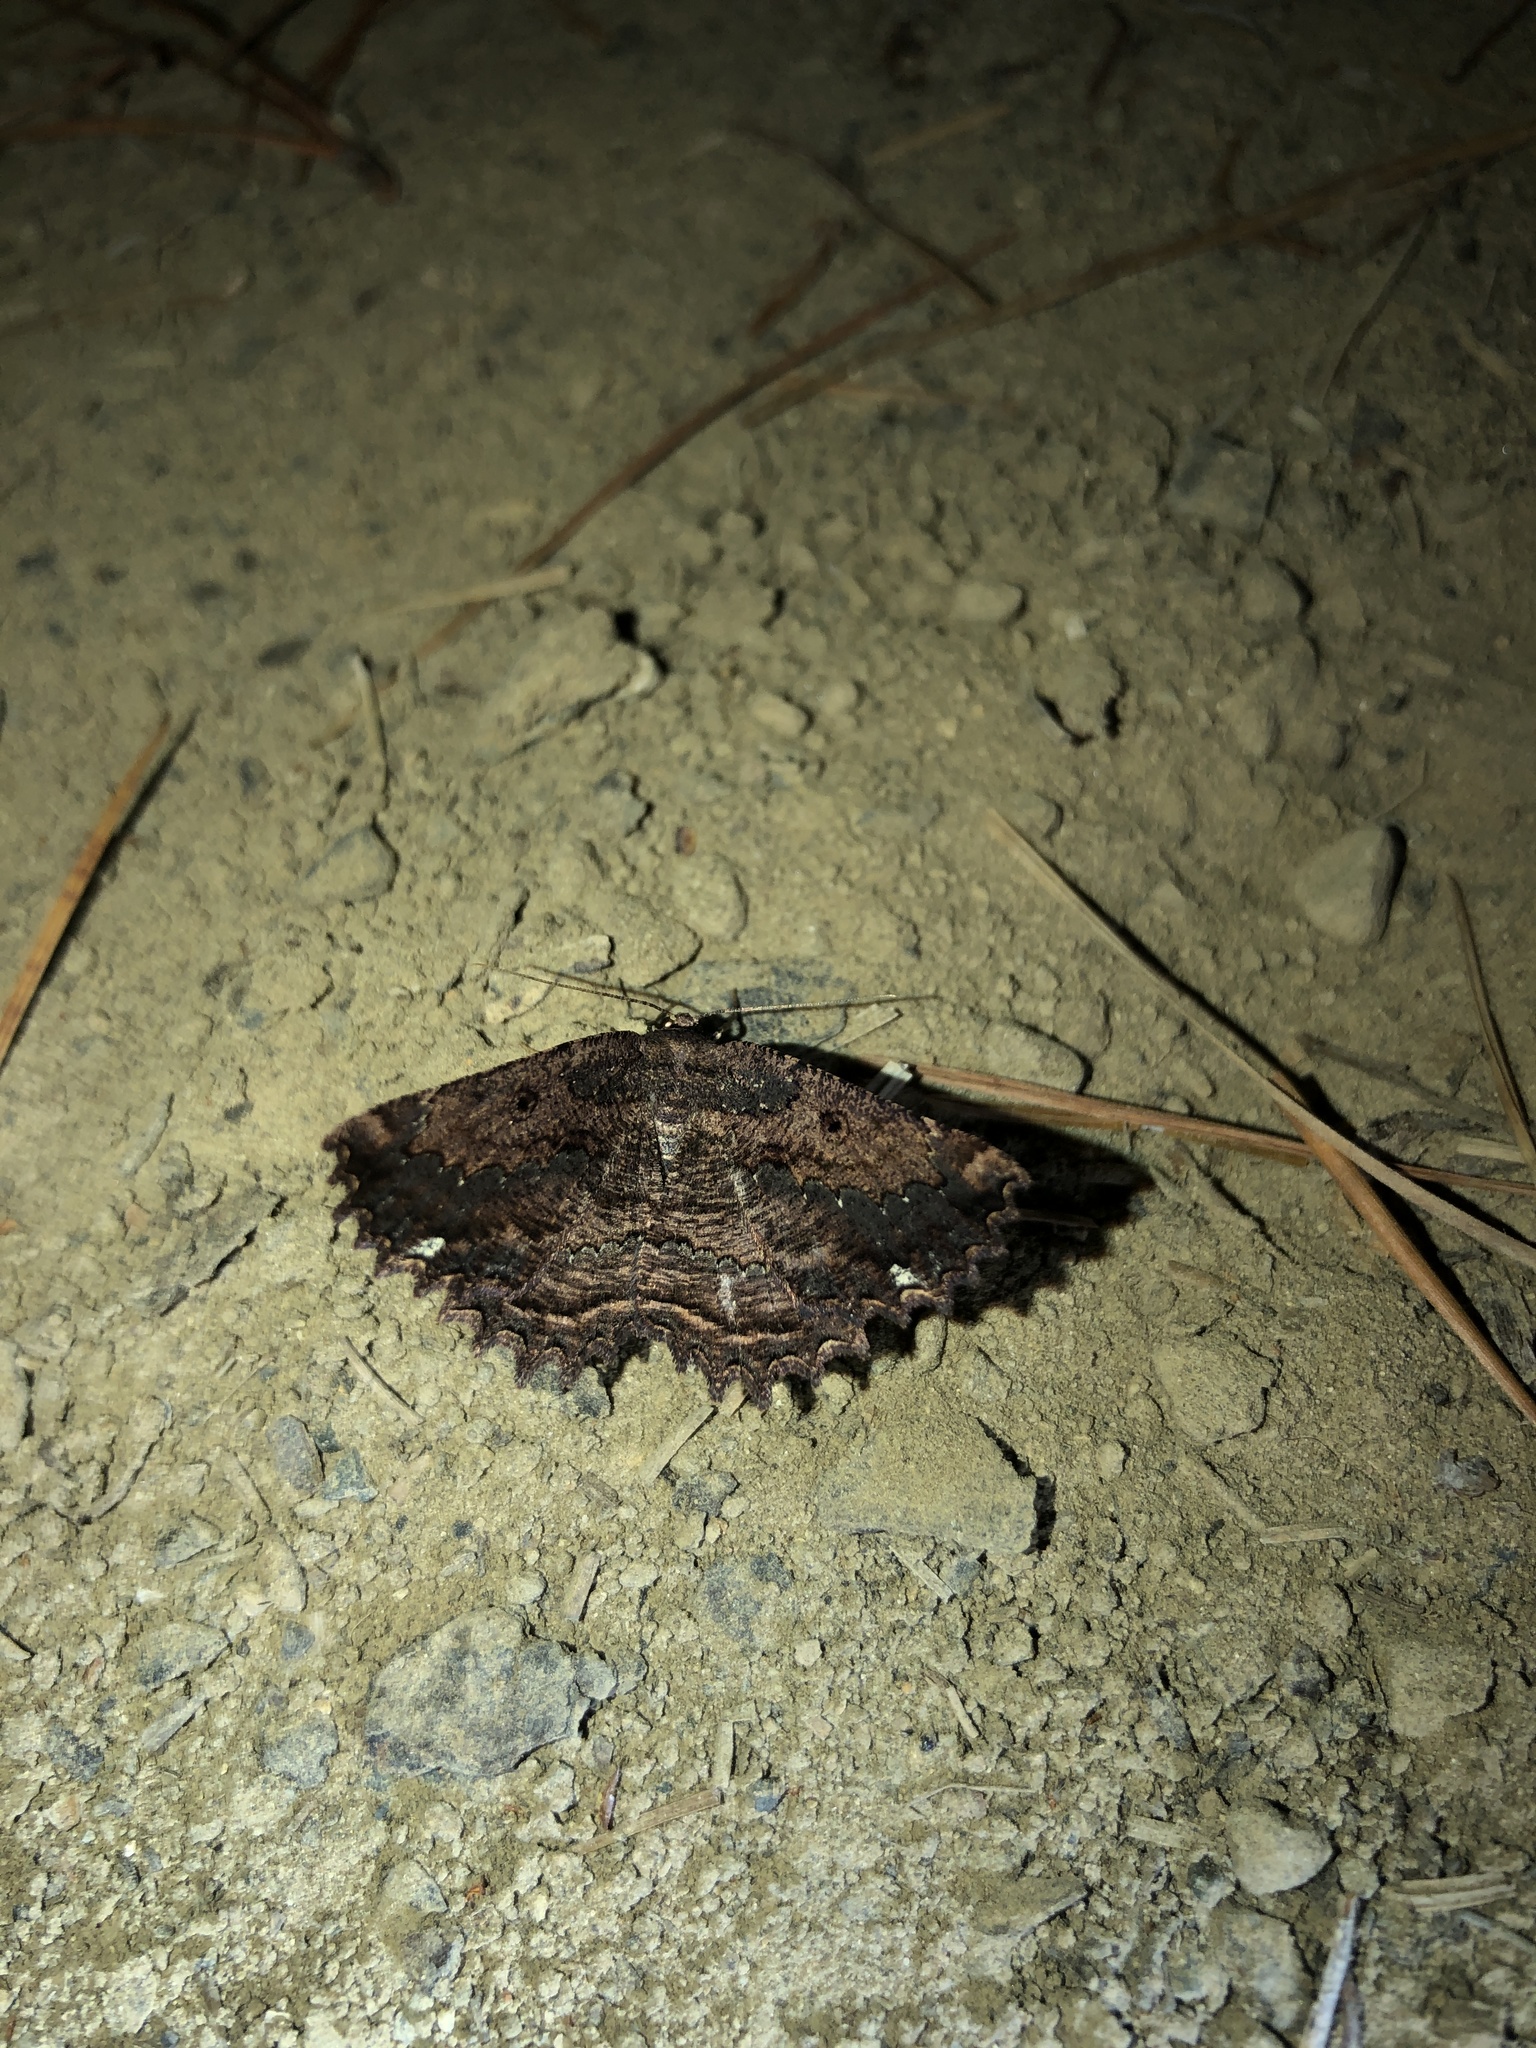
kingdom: Animalia
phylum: Arthropoda
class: Insecta
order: Lepidoptera
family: Geometridae
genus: Gellonia
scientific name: Gellonia pannularia
